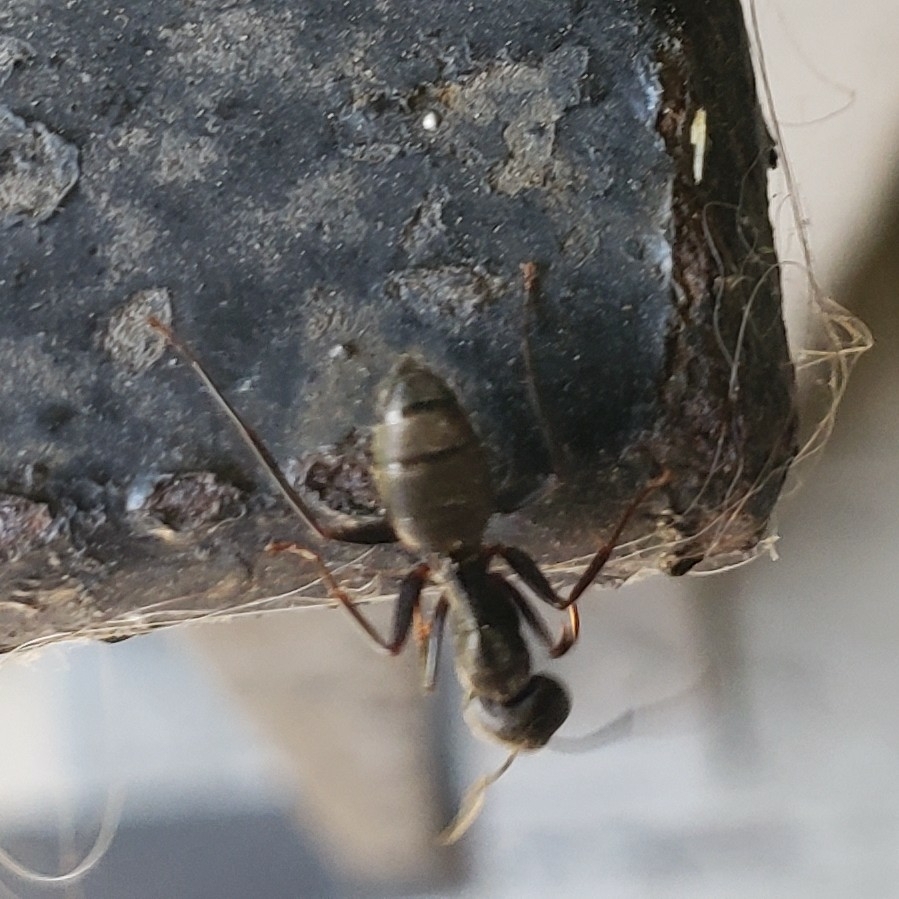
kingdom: Animalia
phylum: Arthropoda
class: Insecta
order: Hymenoptera
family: Formicidae
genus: Camponotus
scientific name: Camponotus pennsylvanicus
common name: Black carpenter ant
